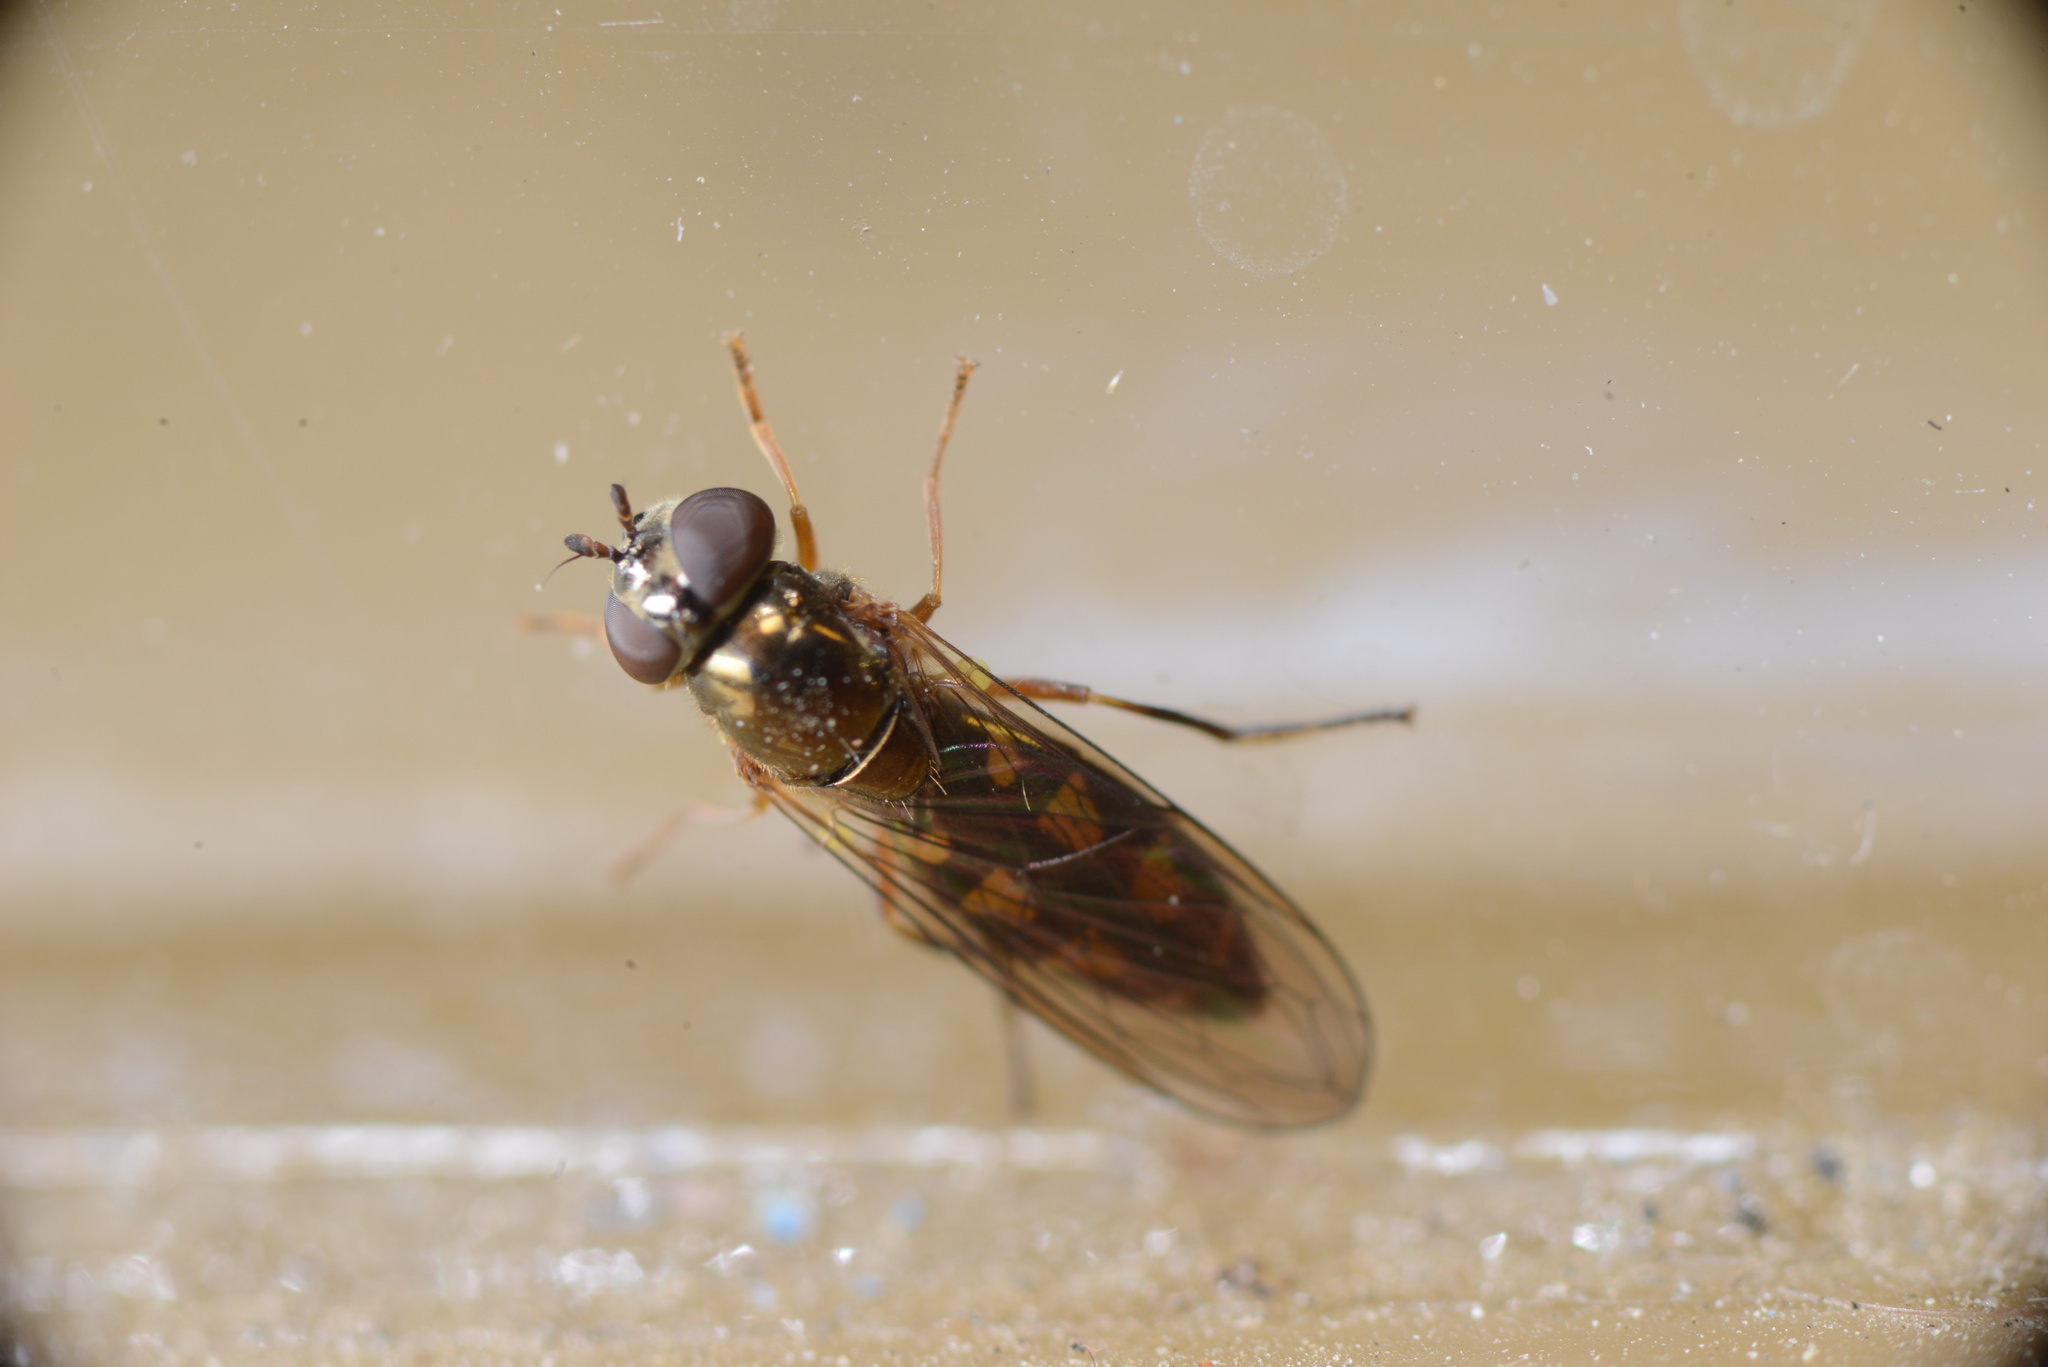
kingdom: Animalia
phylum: Arthropoda
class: Insecta
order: Diptera
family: Syrphidae
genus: Melanostoma
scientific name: Melanostoma fasciatum
